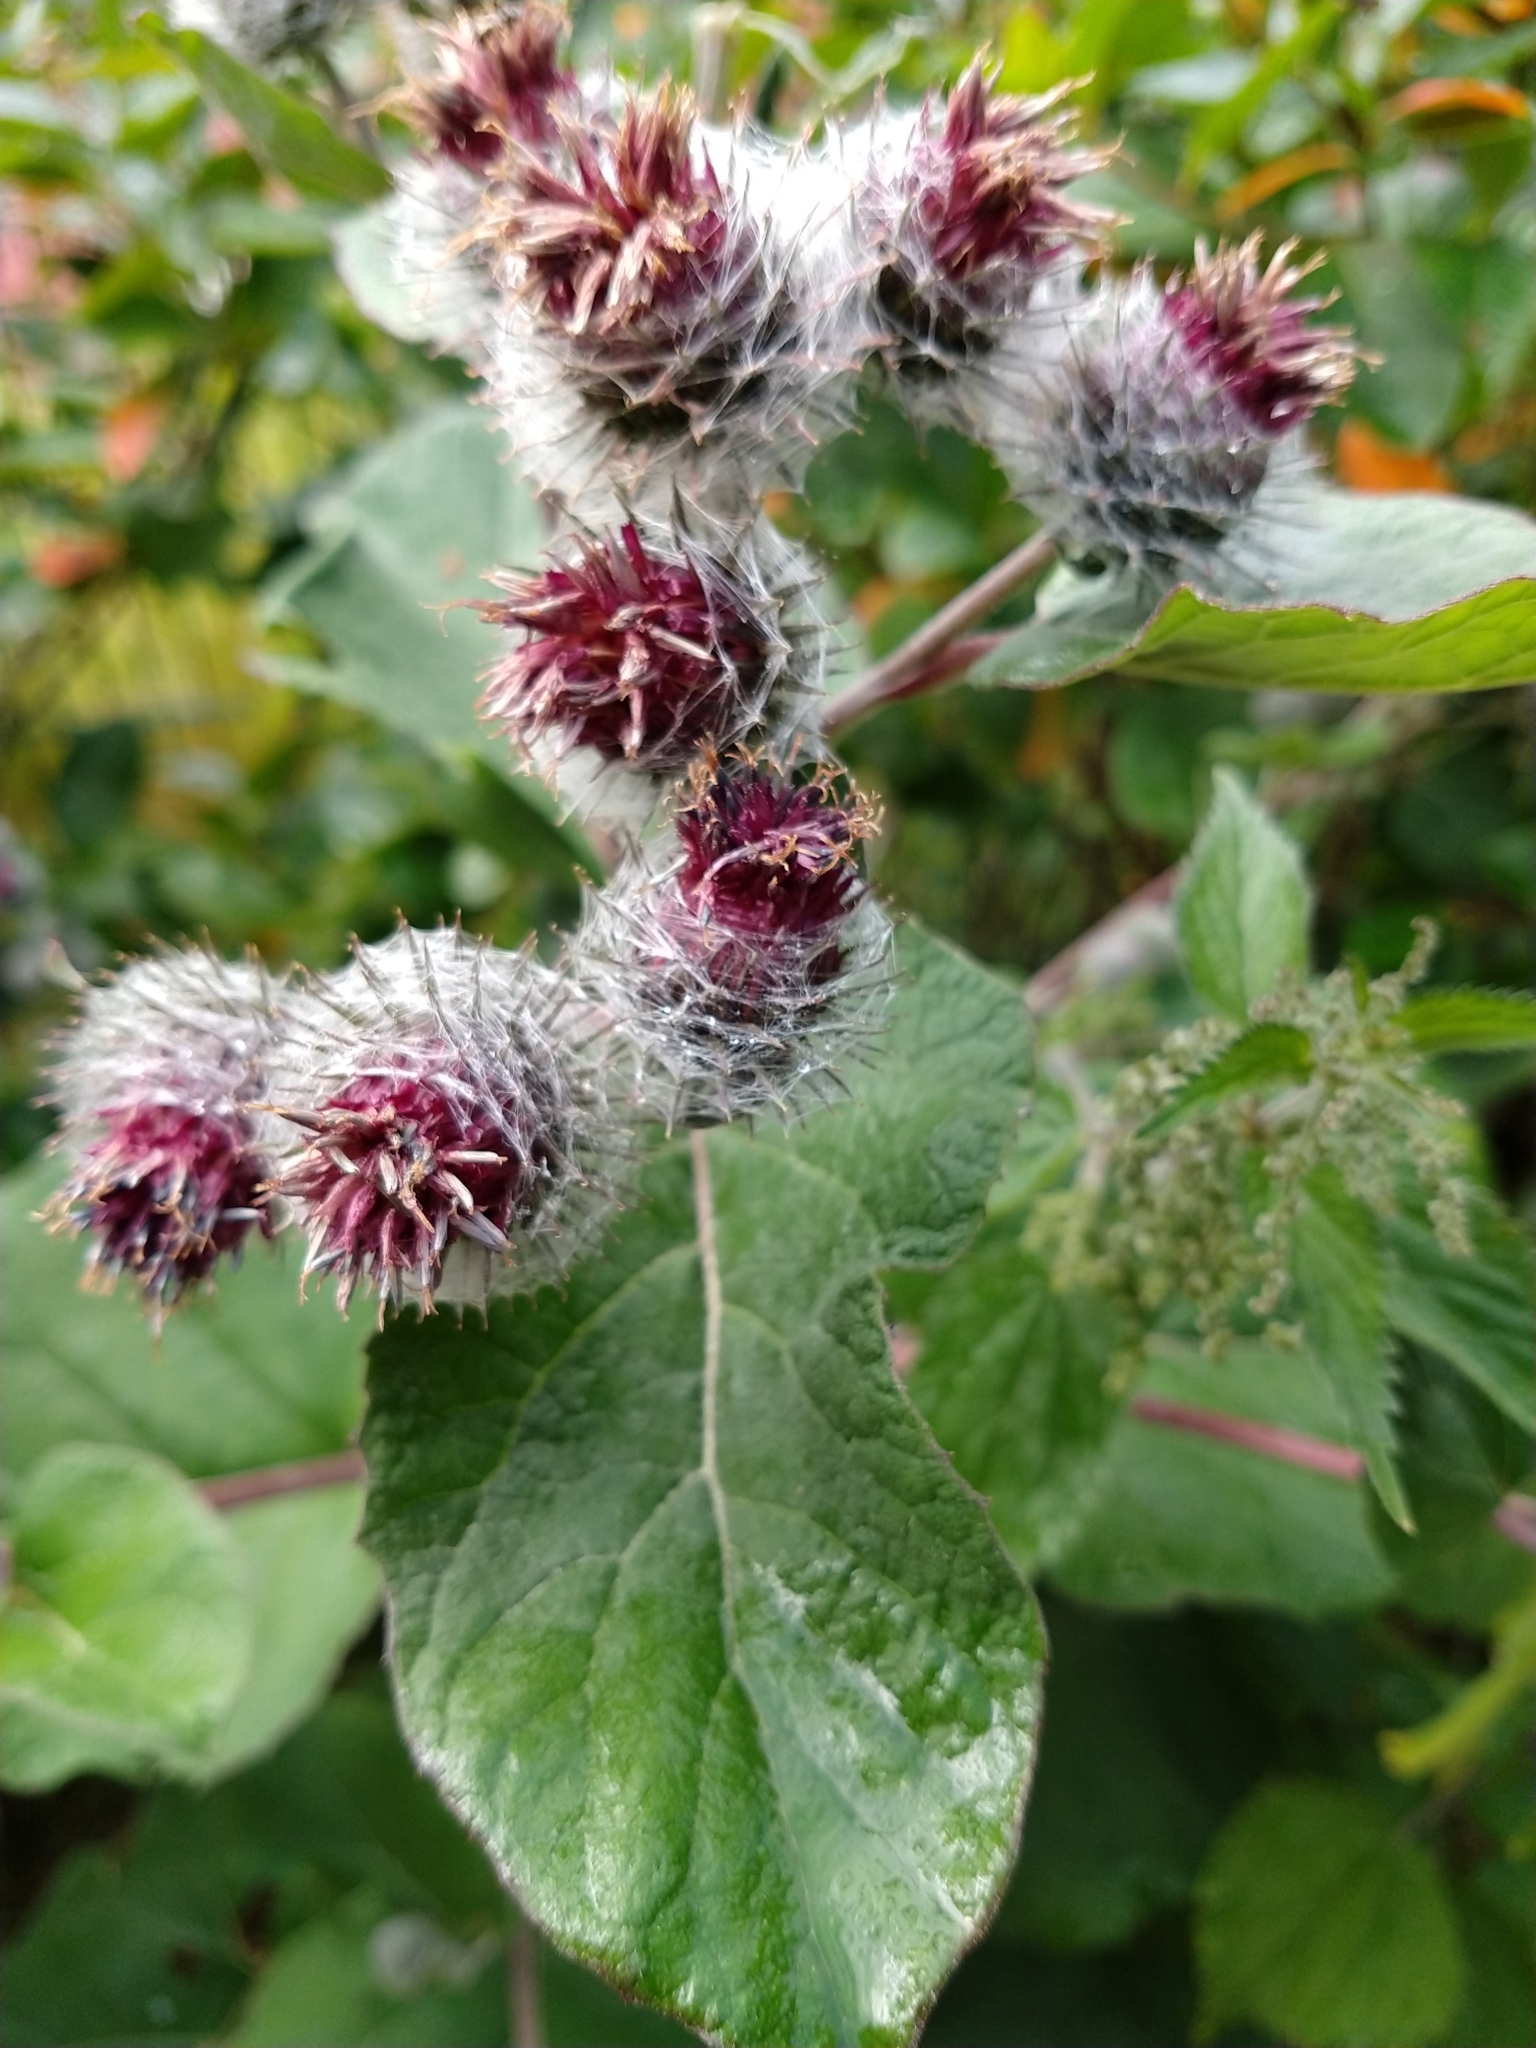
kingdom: Plantae
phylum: Tracheophyta
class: Magnoliopsida
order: Asterales
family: Asteraceae
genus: Arctium
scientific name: Arctium tomentosum
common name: Woolly burdock
